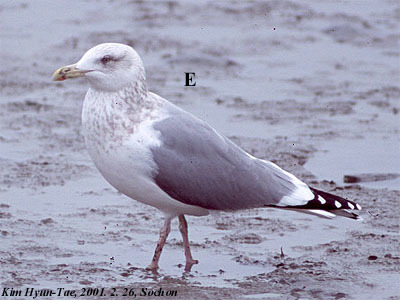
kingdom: Animalia
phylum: Chordata
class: Aves
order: Charadriiformes
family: Laridae
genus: Larus
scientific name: Larus vegae
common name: Vega gull
